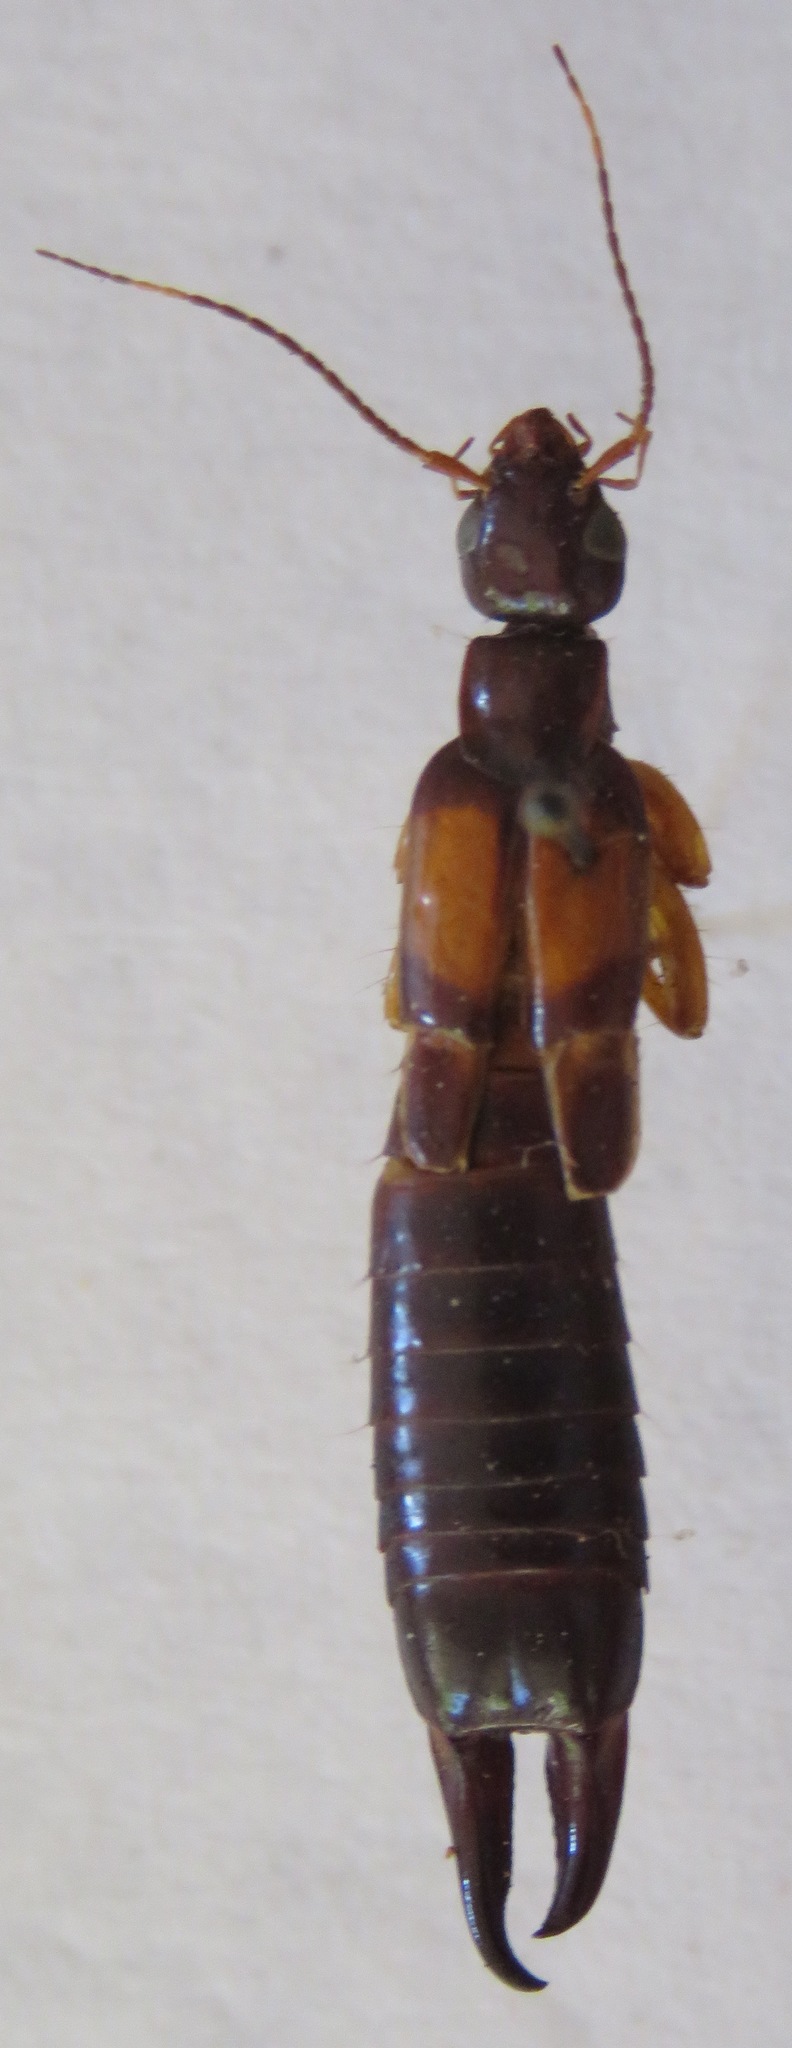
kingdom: Animalia
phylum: Arthropoda
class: Insecta
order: Dermaptera
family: Anisolabididae
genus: Carcinophora
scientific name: Carcinophora americana
